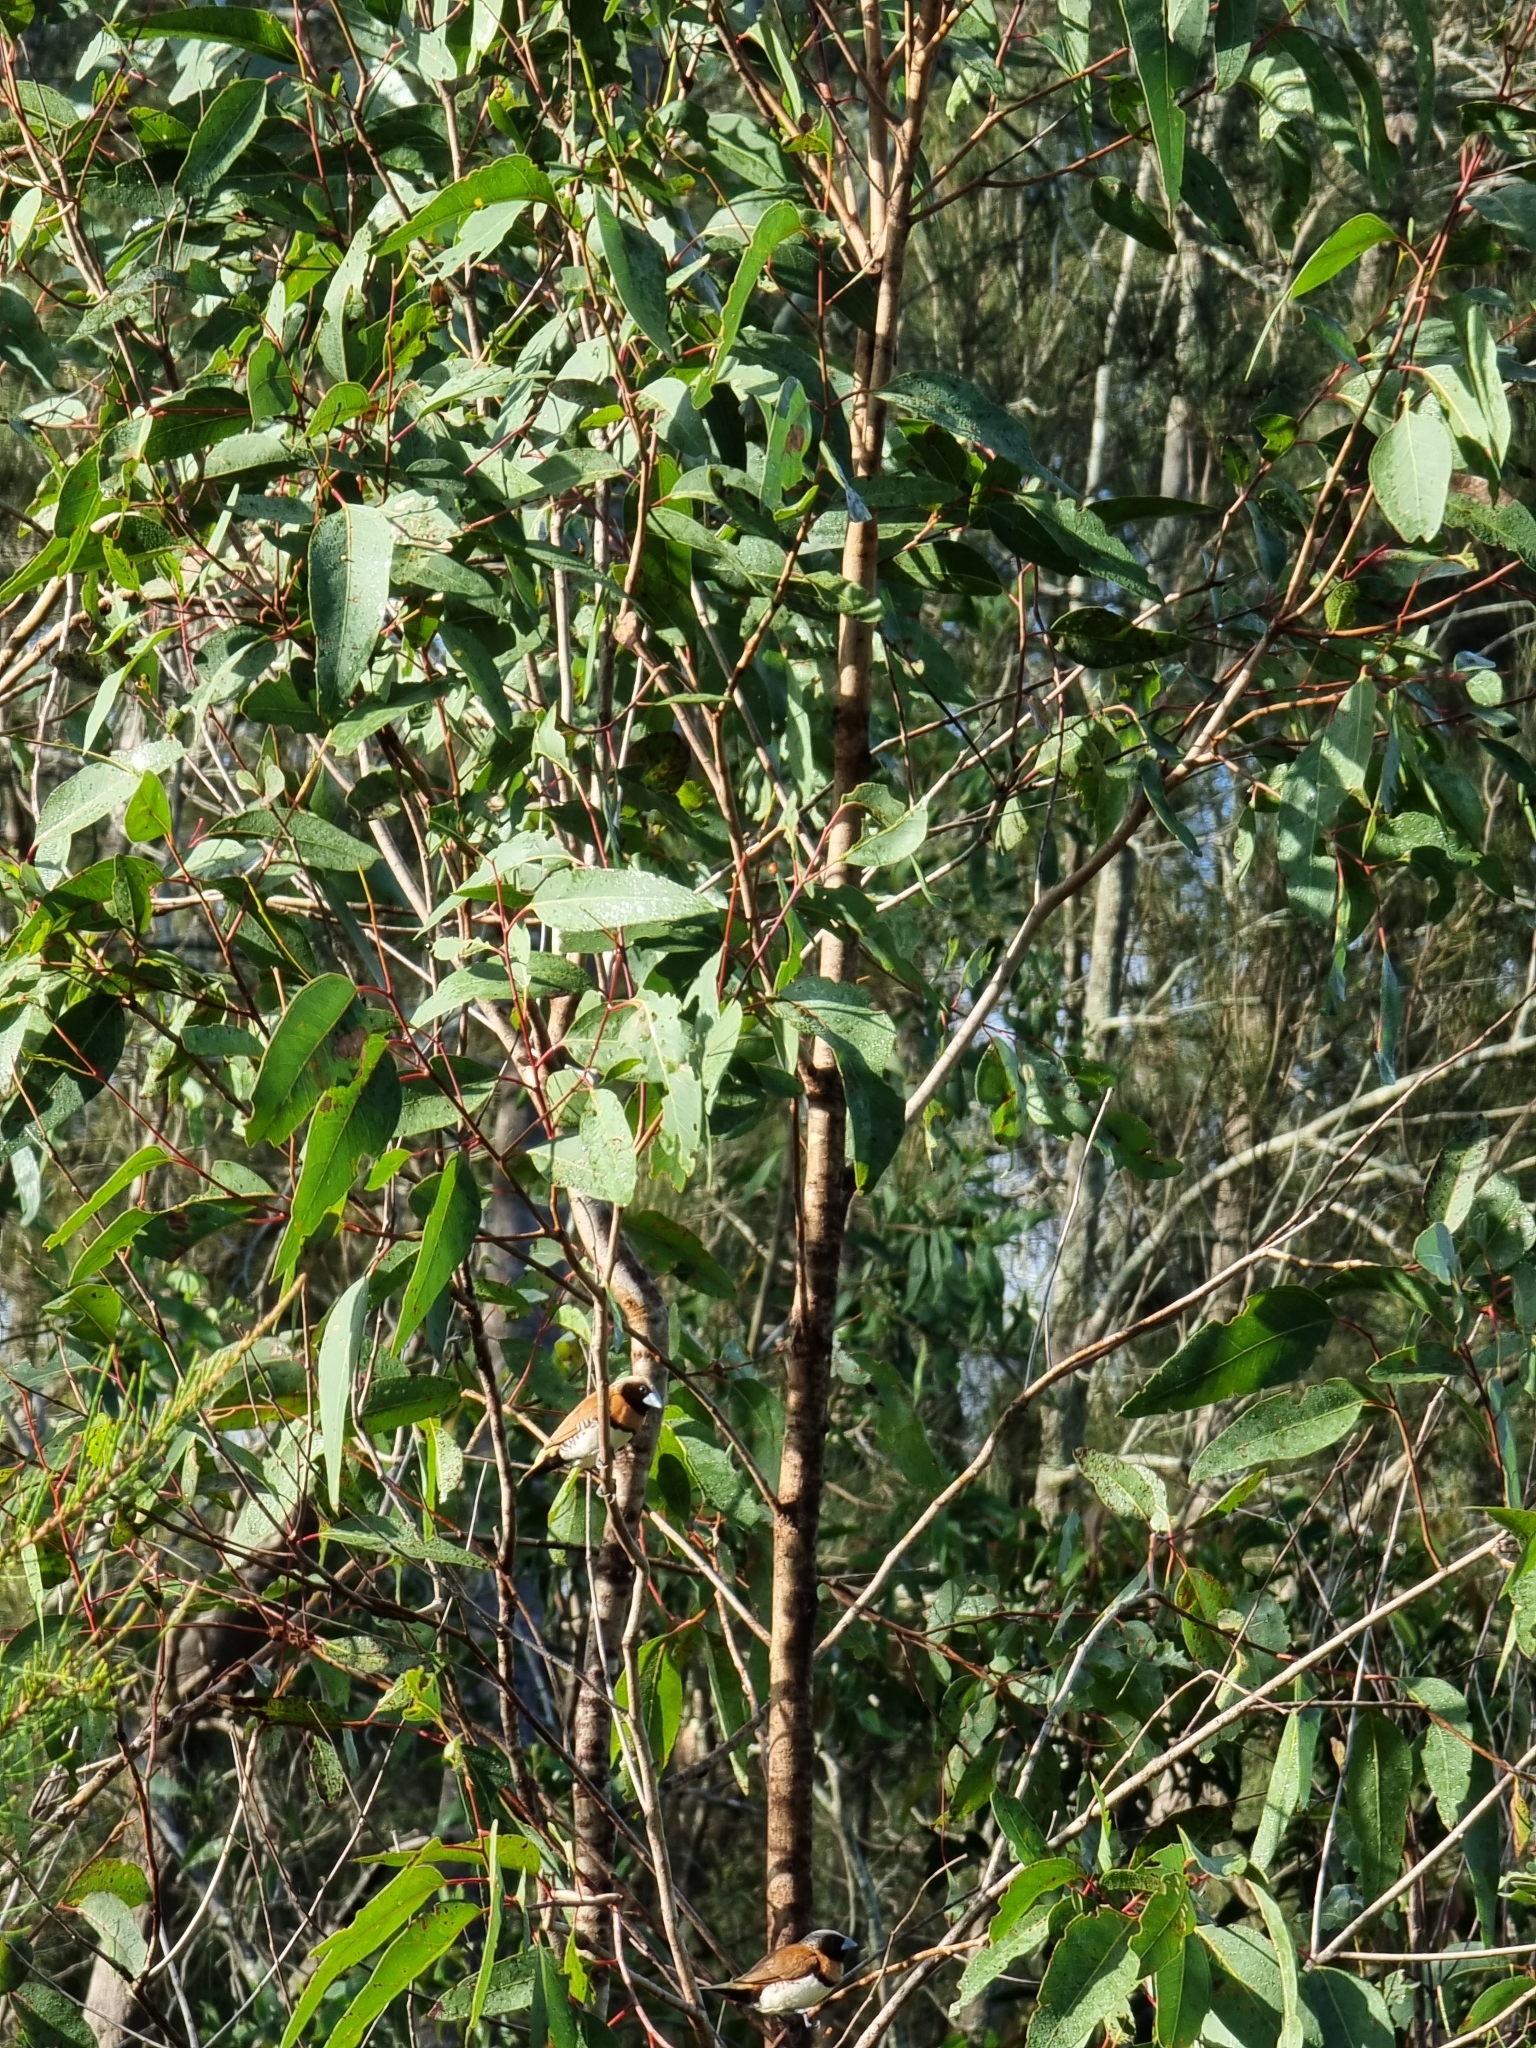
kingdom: Animalia
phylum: Chordata
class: Aves
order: Passeriformes
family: Estrildidae
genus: Lonchura
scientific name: Lonchura castaneothorax
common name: Chestnut-breasted mannikin
